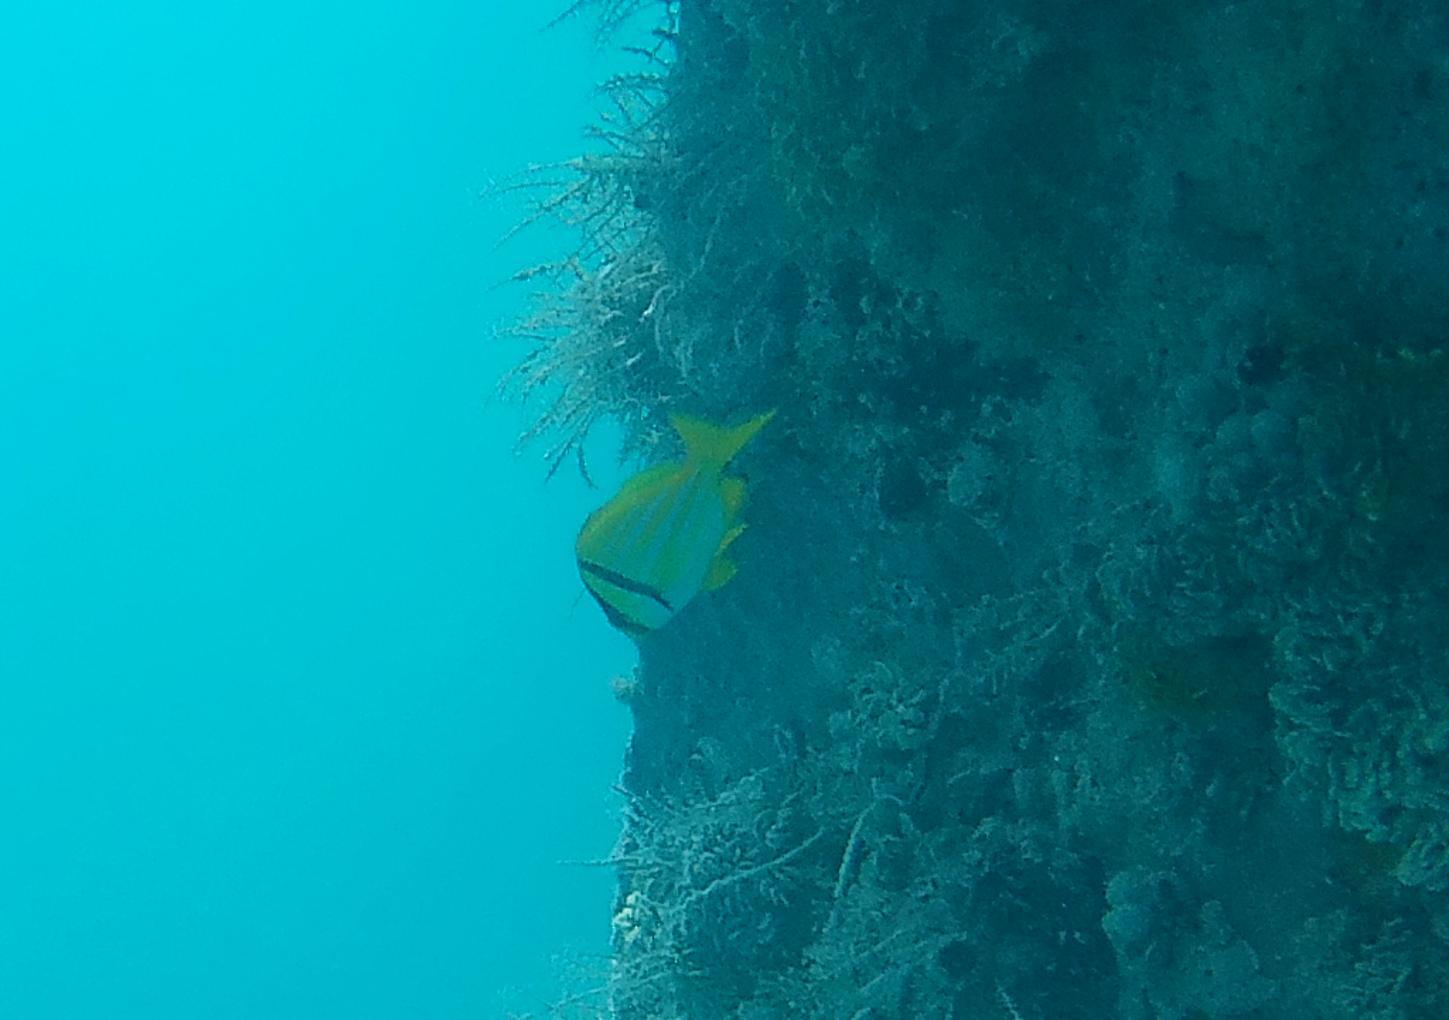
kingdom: Animalia
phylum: Chordata
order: Perciformes
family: Haemulidae
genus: Anisotremus
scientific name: Anisotremus virginicus
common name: Porkfish
